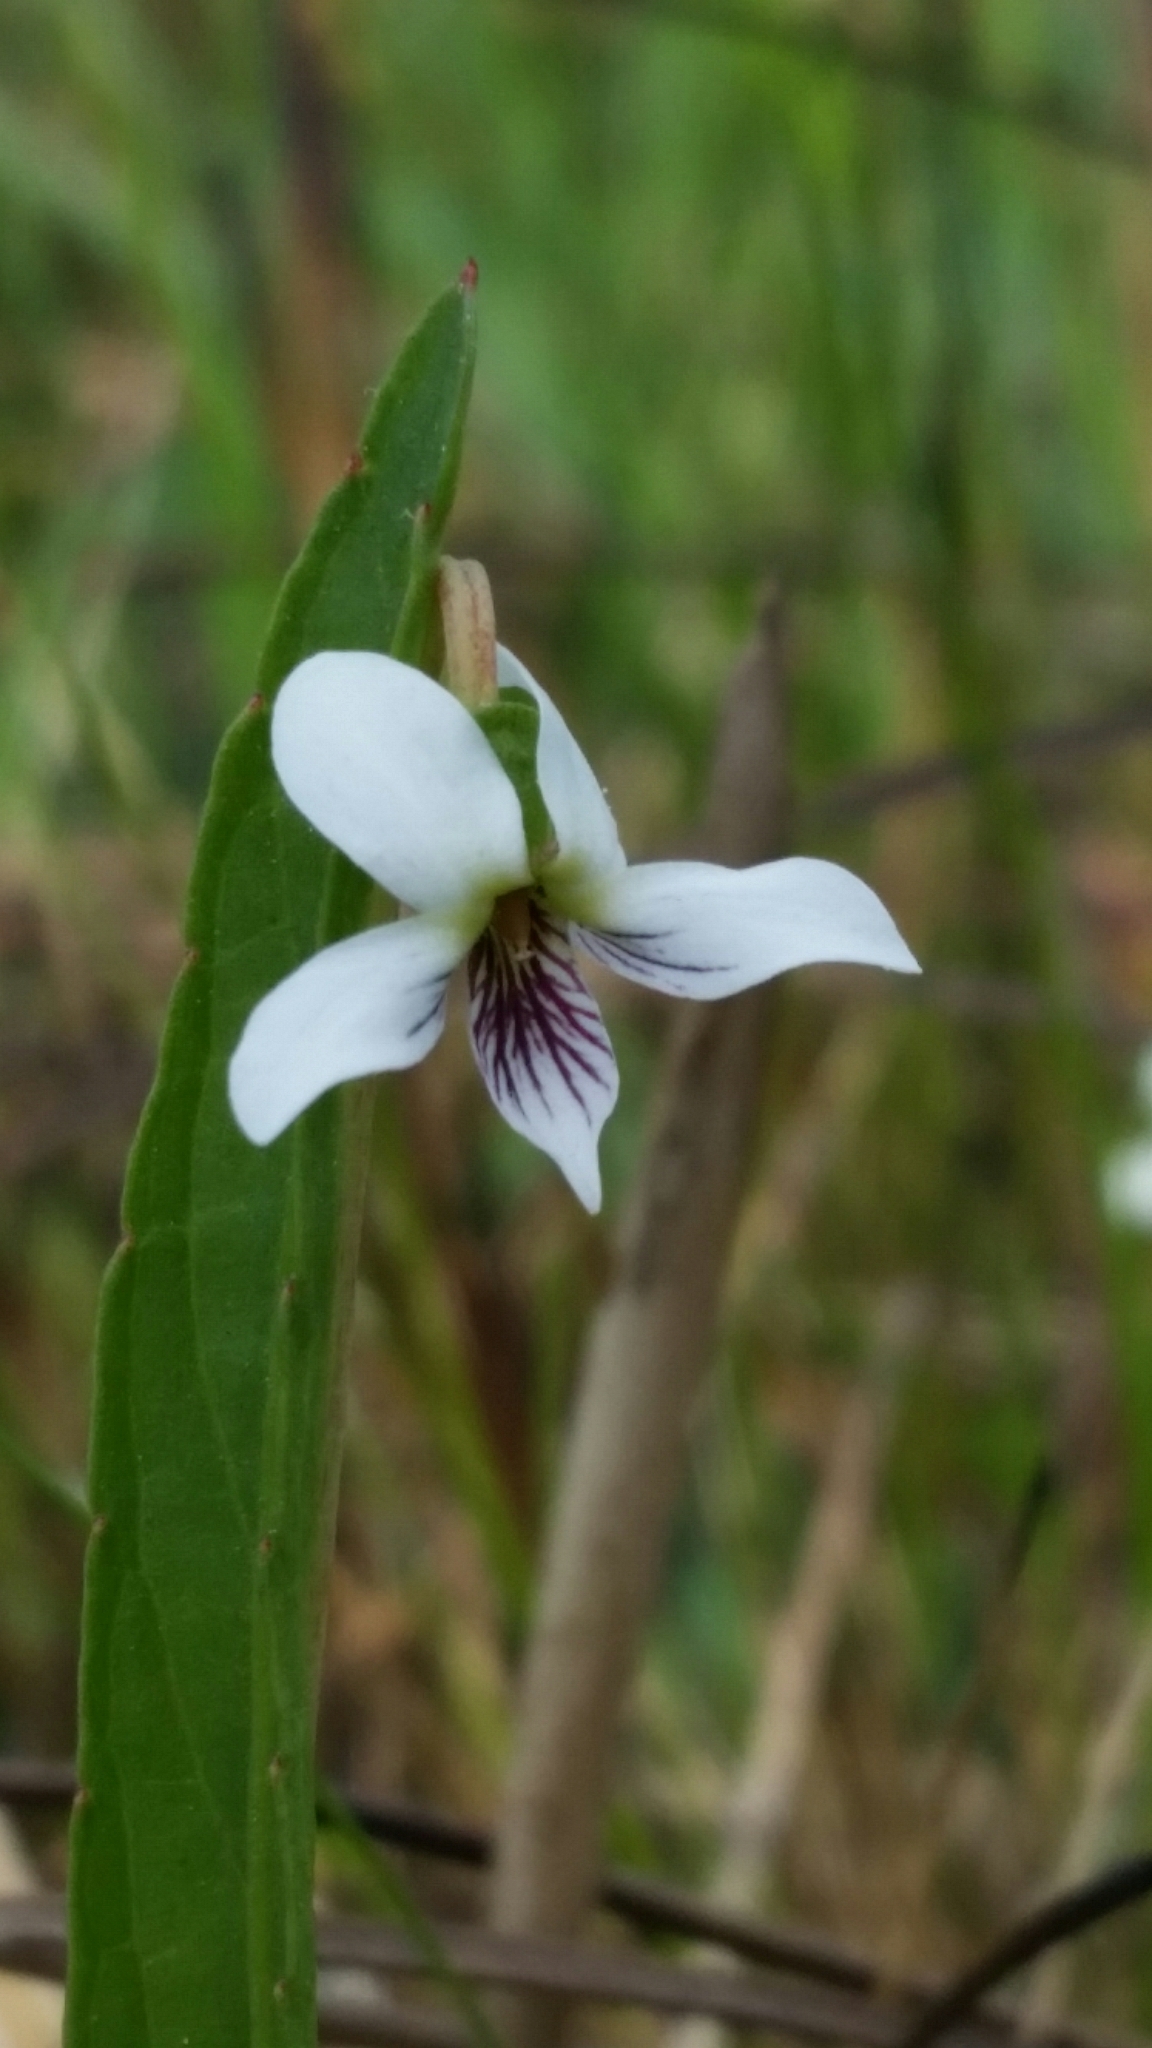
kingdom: Plantae
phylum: Tracheophyta
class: Magnoliopsida
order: Malpighiales
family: Violaceae
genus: Viola
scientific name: Viola vittata
